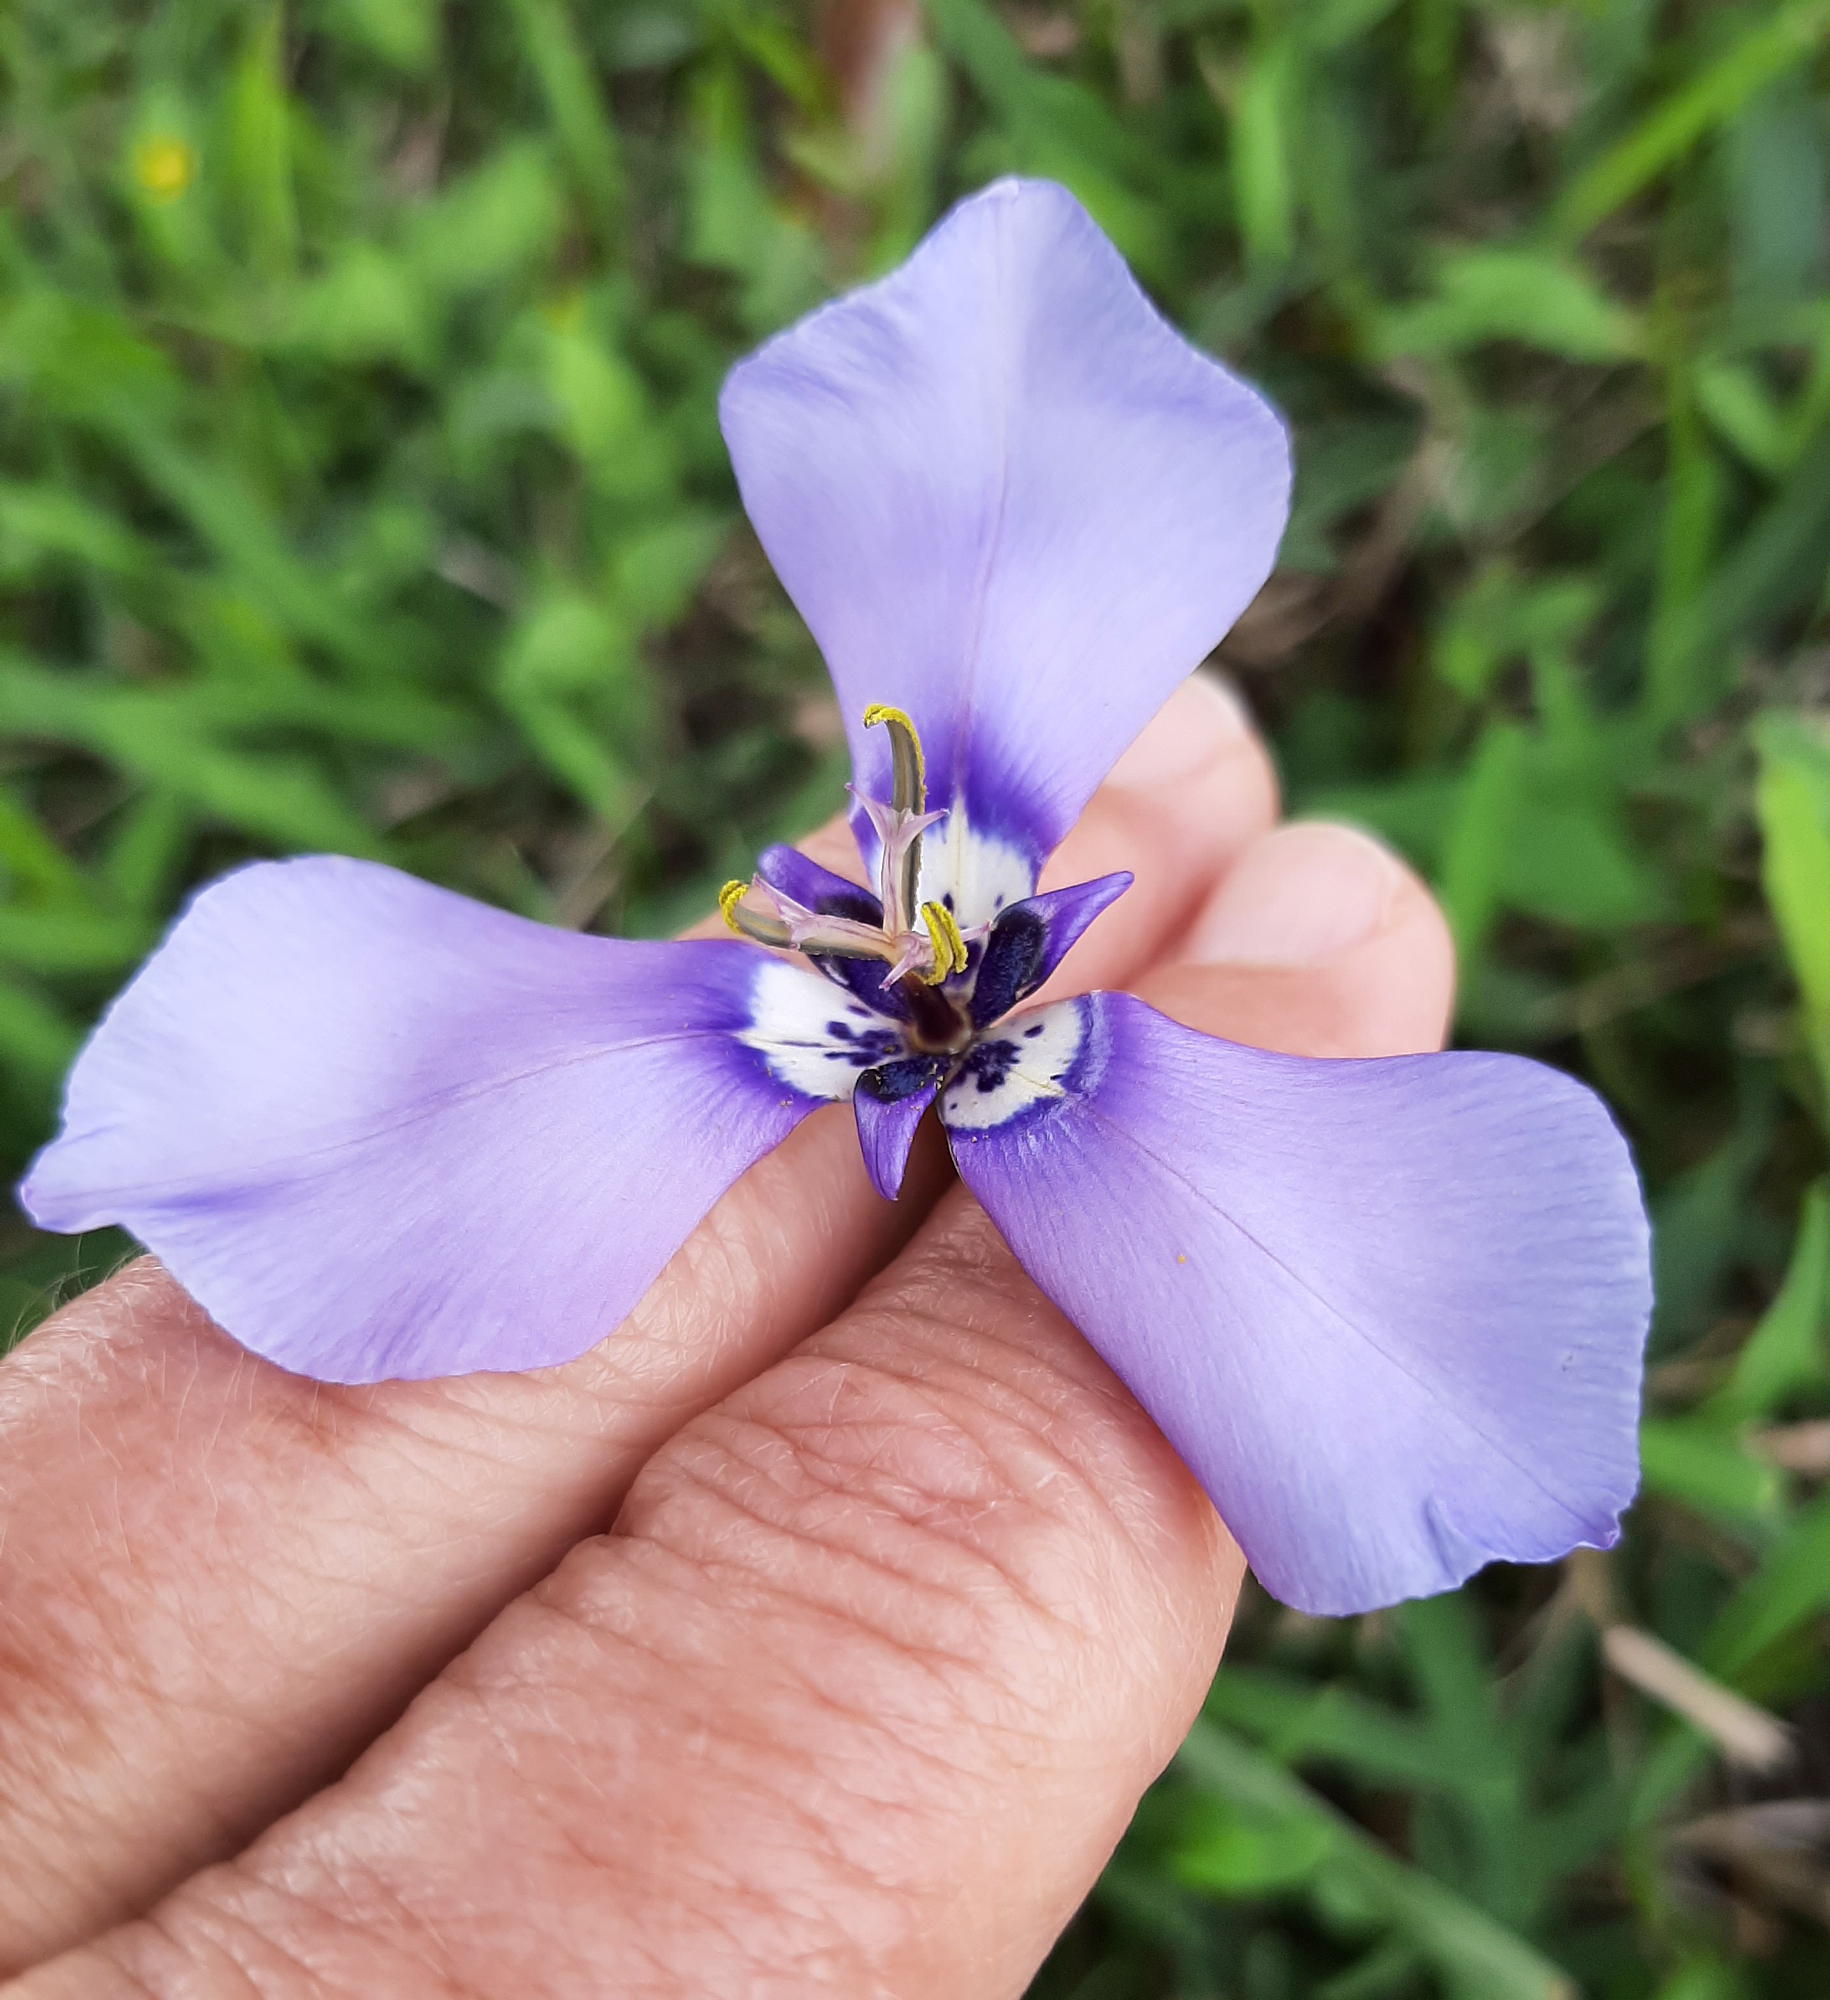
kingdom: Plantae
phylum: Tracheophyta
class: Liliopsida
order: Asparagales
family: Iridaceae
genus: Herbertia
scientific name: Herbertia lahue
